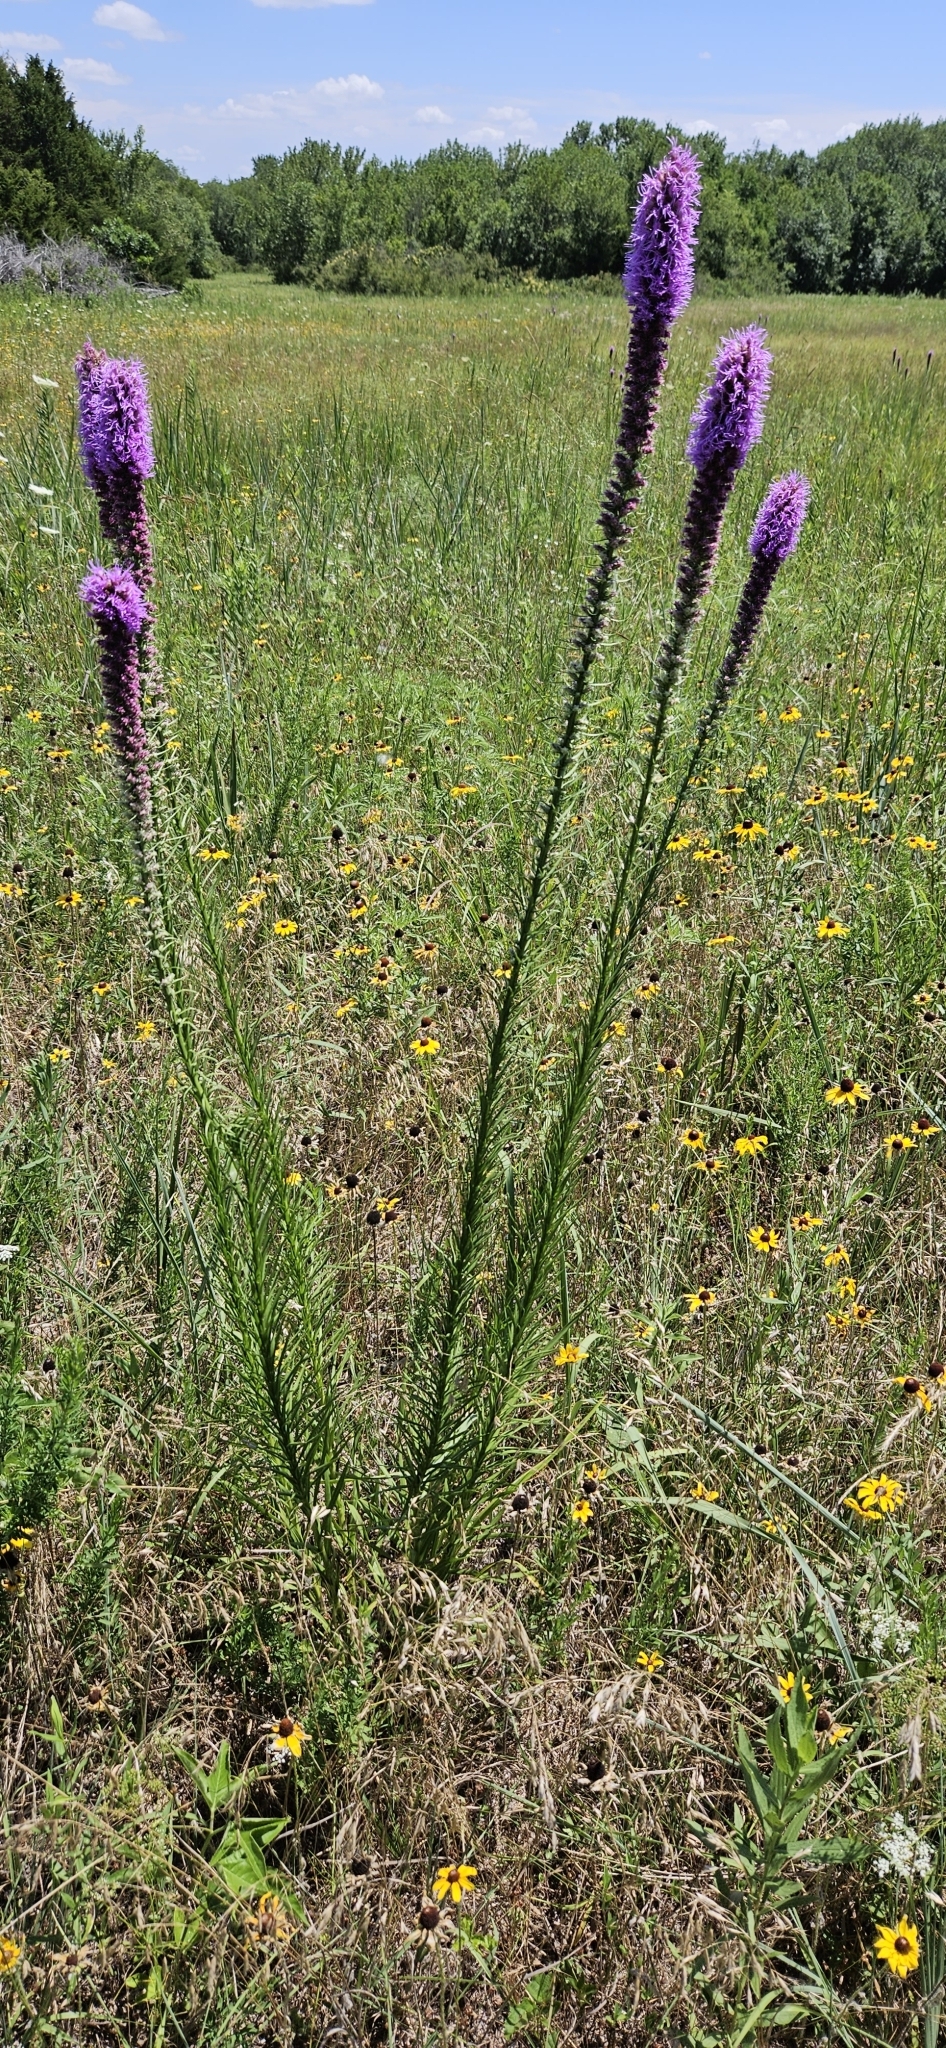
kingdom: Plantae
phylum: Tracheophyta
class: Magnoliopsida
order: Asterales
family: Asteraceae
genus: Liatris
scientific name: Liatris pycnostachya
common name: Cattail gayfeather
